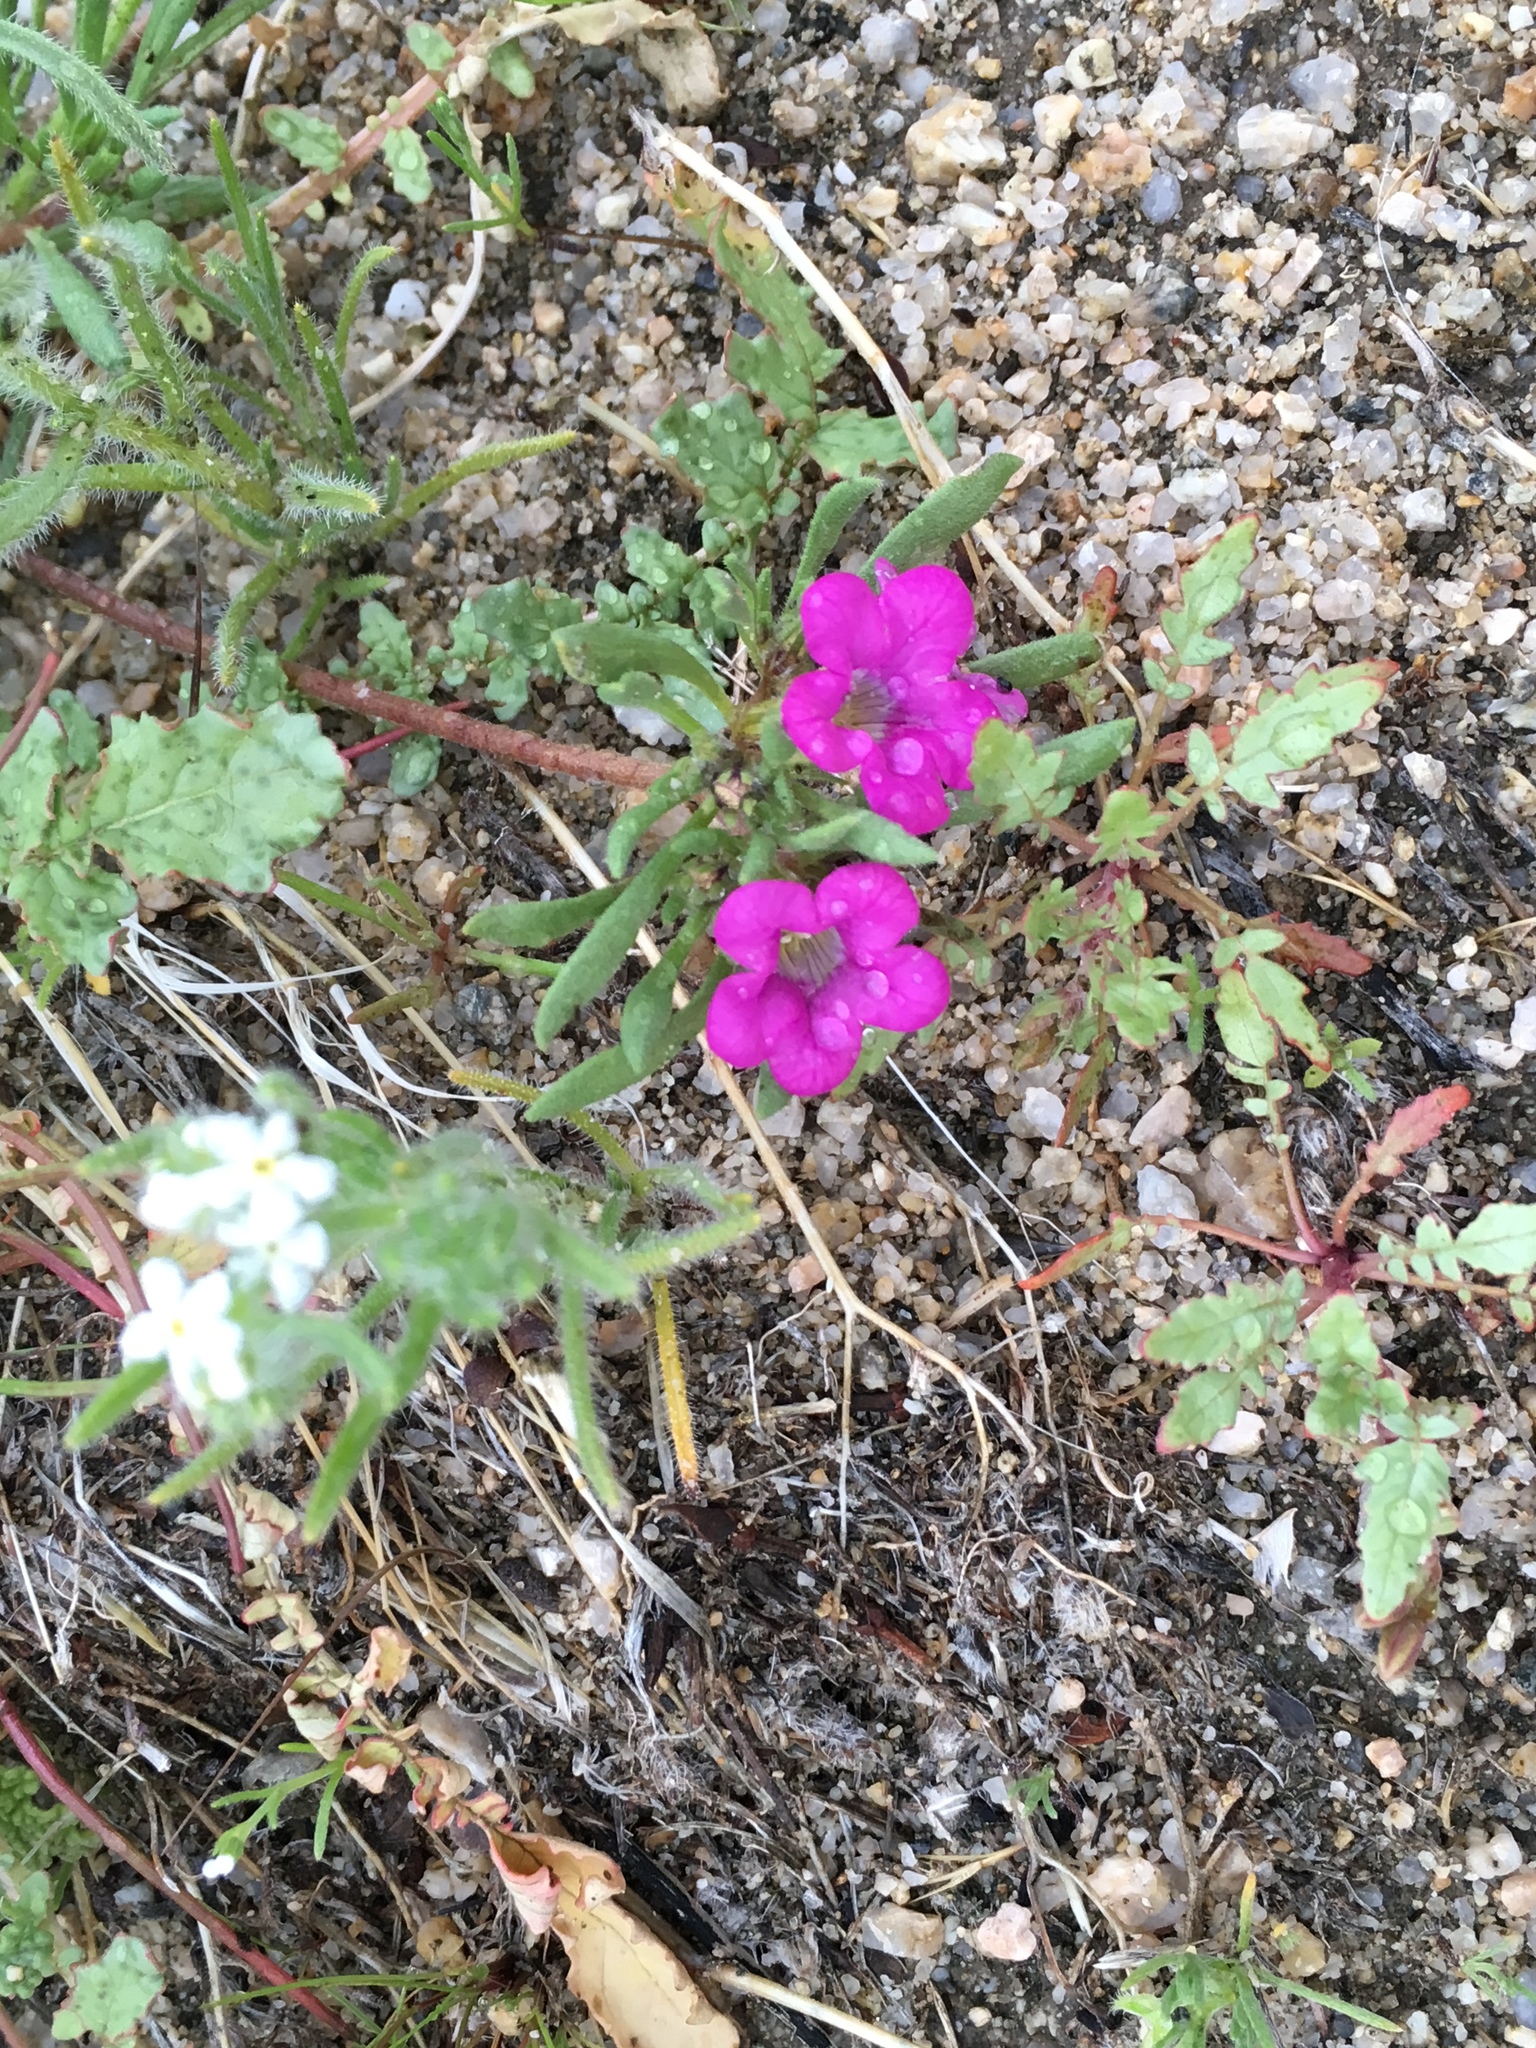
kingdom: Plantae
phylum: Tracheophyta
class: Magnoliopsida
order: Boraginales
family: Namaceae
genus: Nama
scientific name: Nama demissa
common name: Leafy nama
